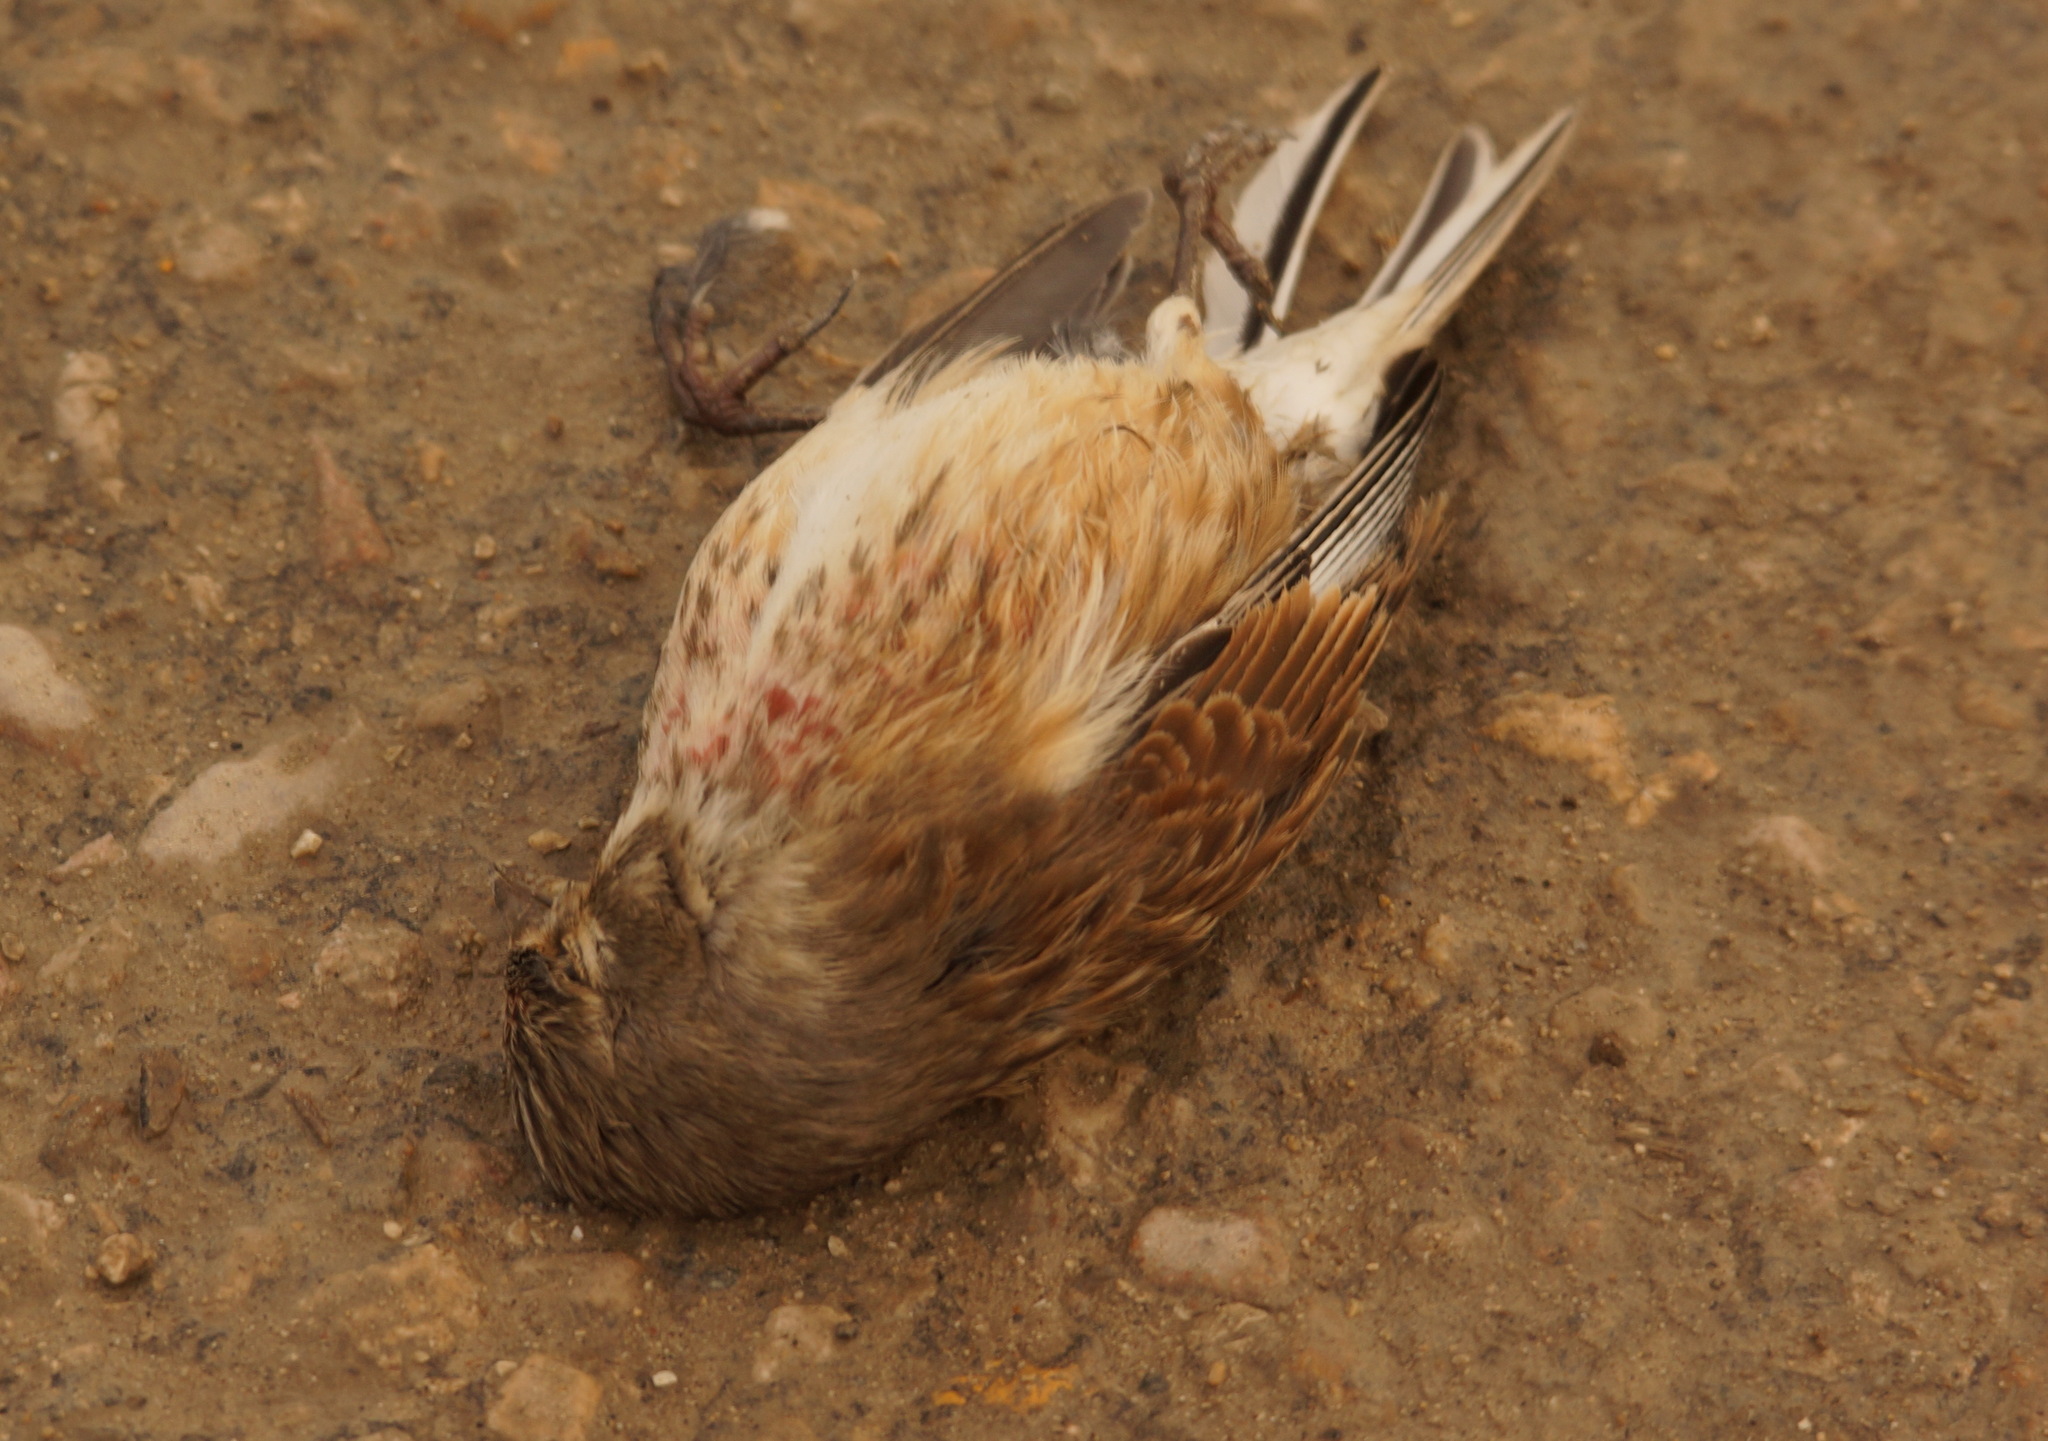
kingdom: Animalia
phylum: Chordata
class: Aves
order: Passeriformes
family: Fringillidae
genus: Linaria
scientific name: Linaria cannabina
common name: Common linnet
